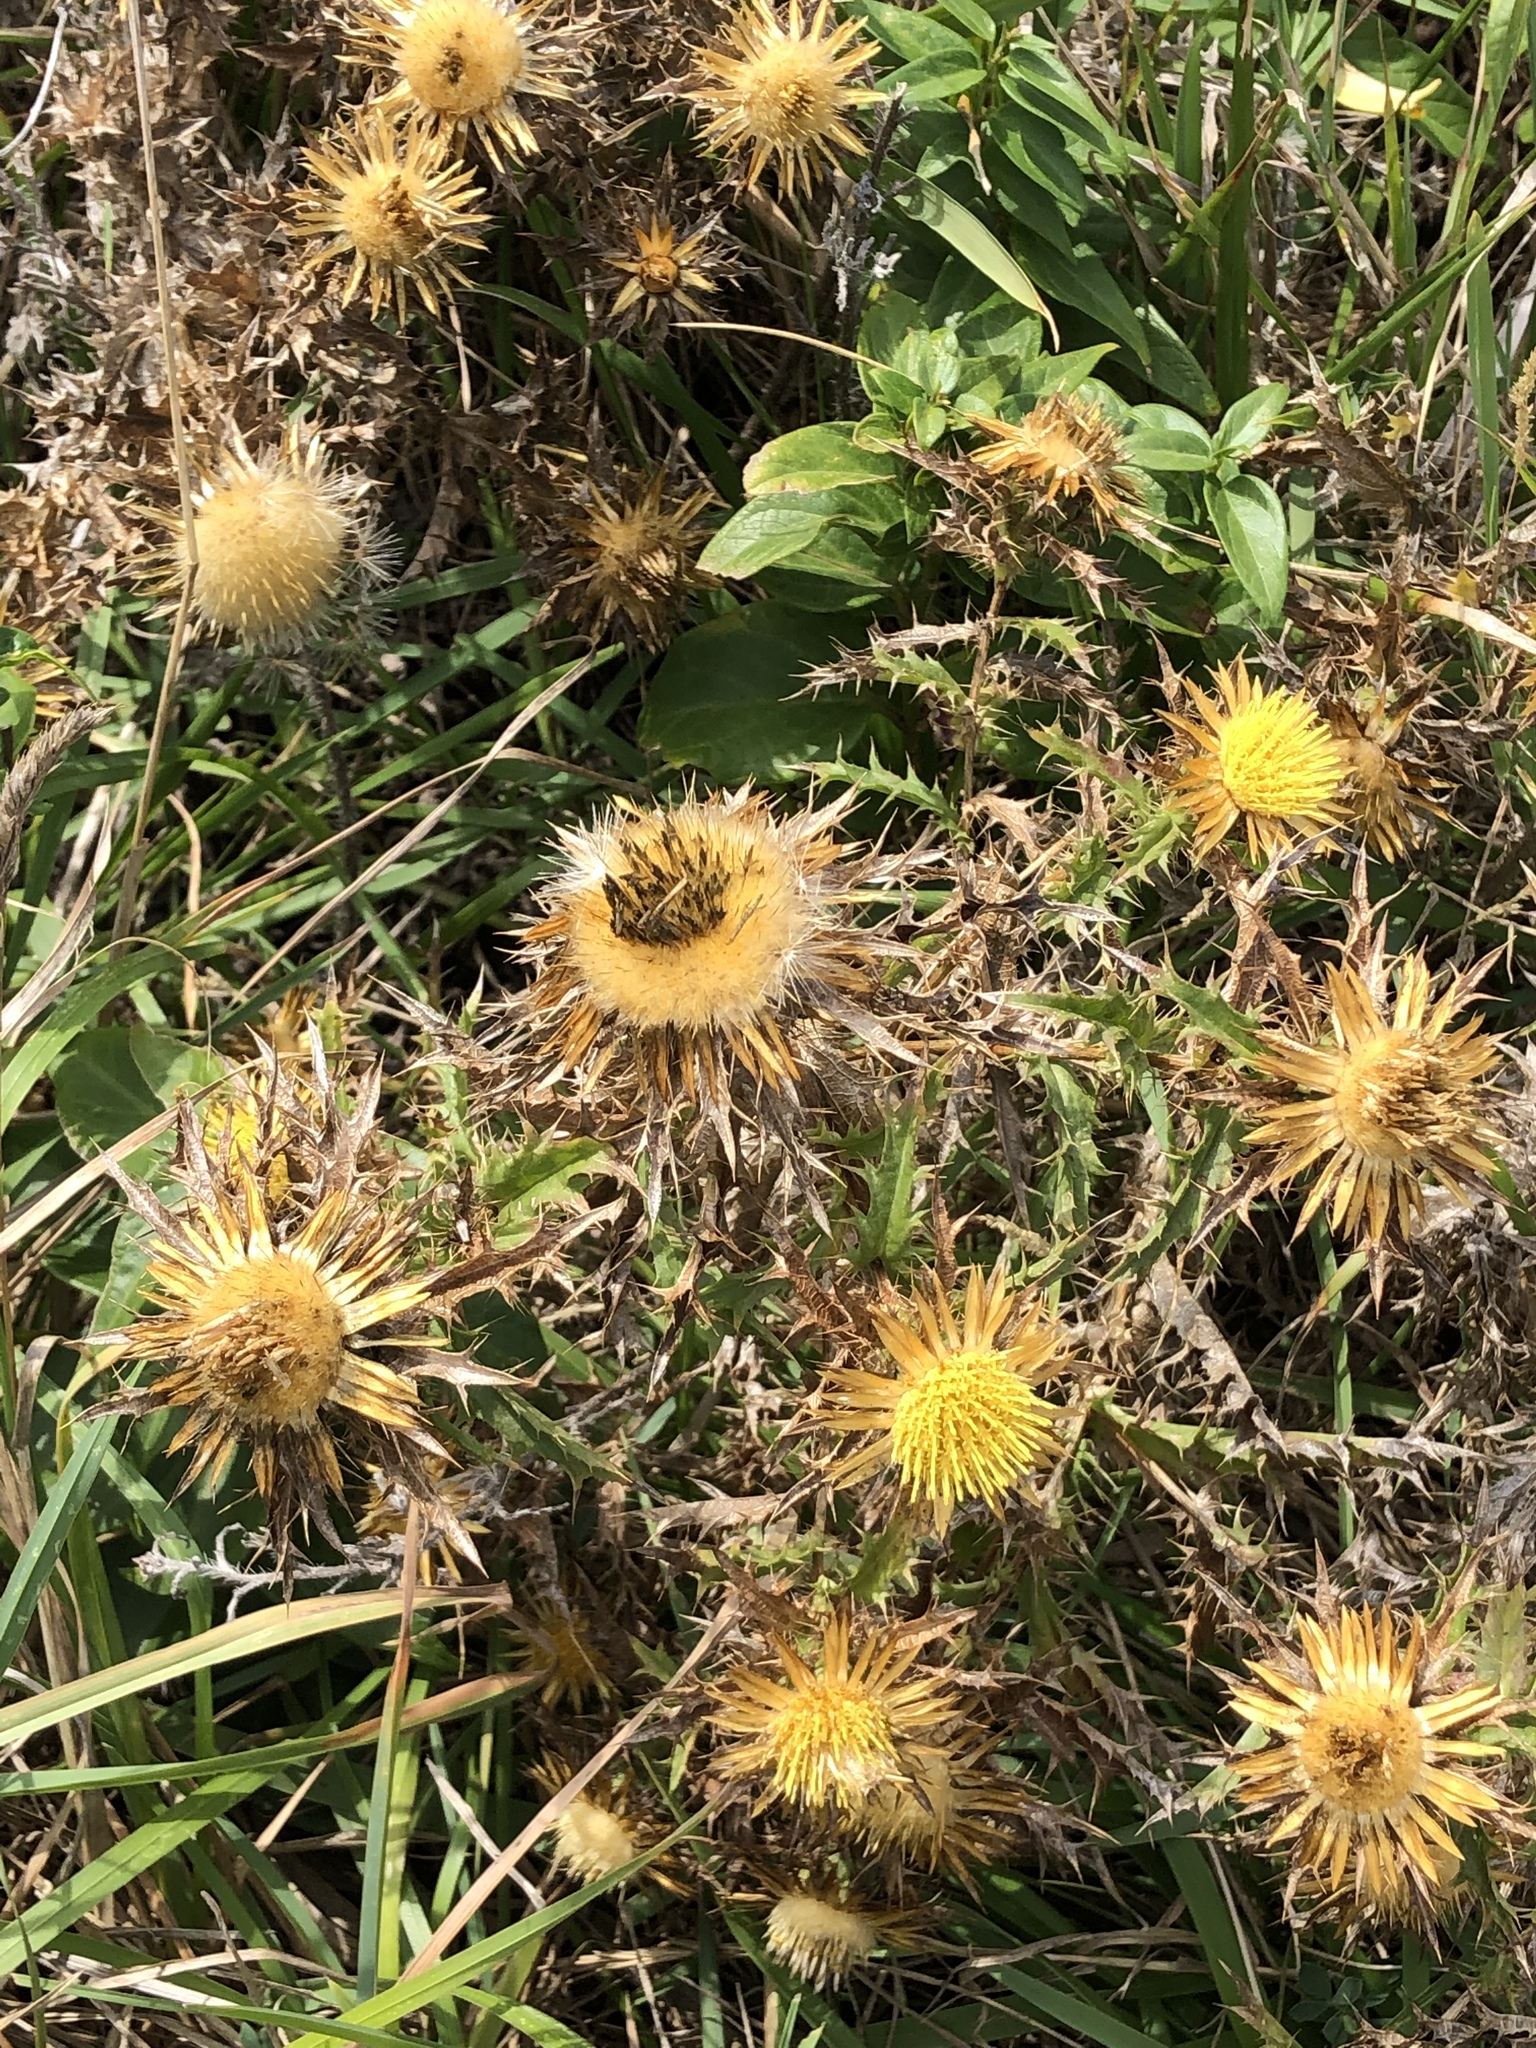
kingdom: Plantae
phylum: Tracheophyta
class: Magnoliopsida
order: Asterales
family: Asteraceae
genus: Carlina
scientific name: Carlina hispanica
